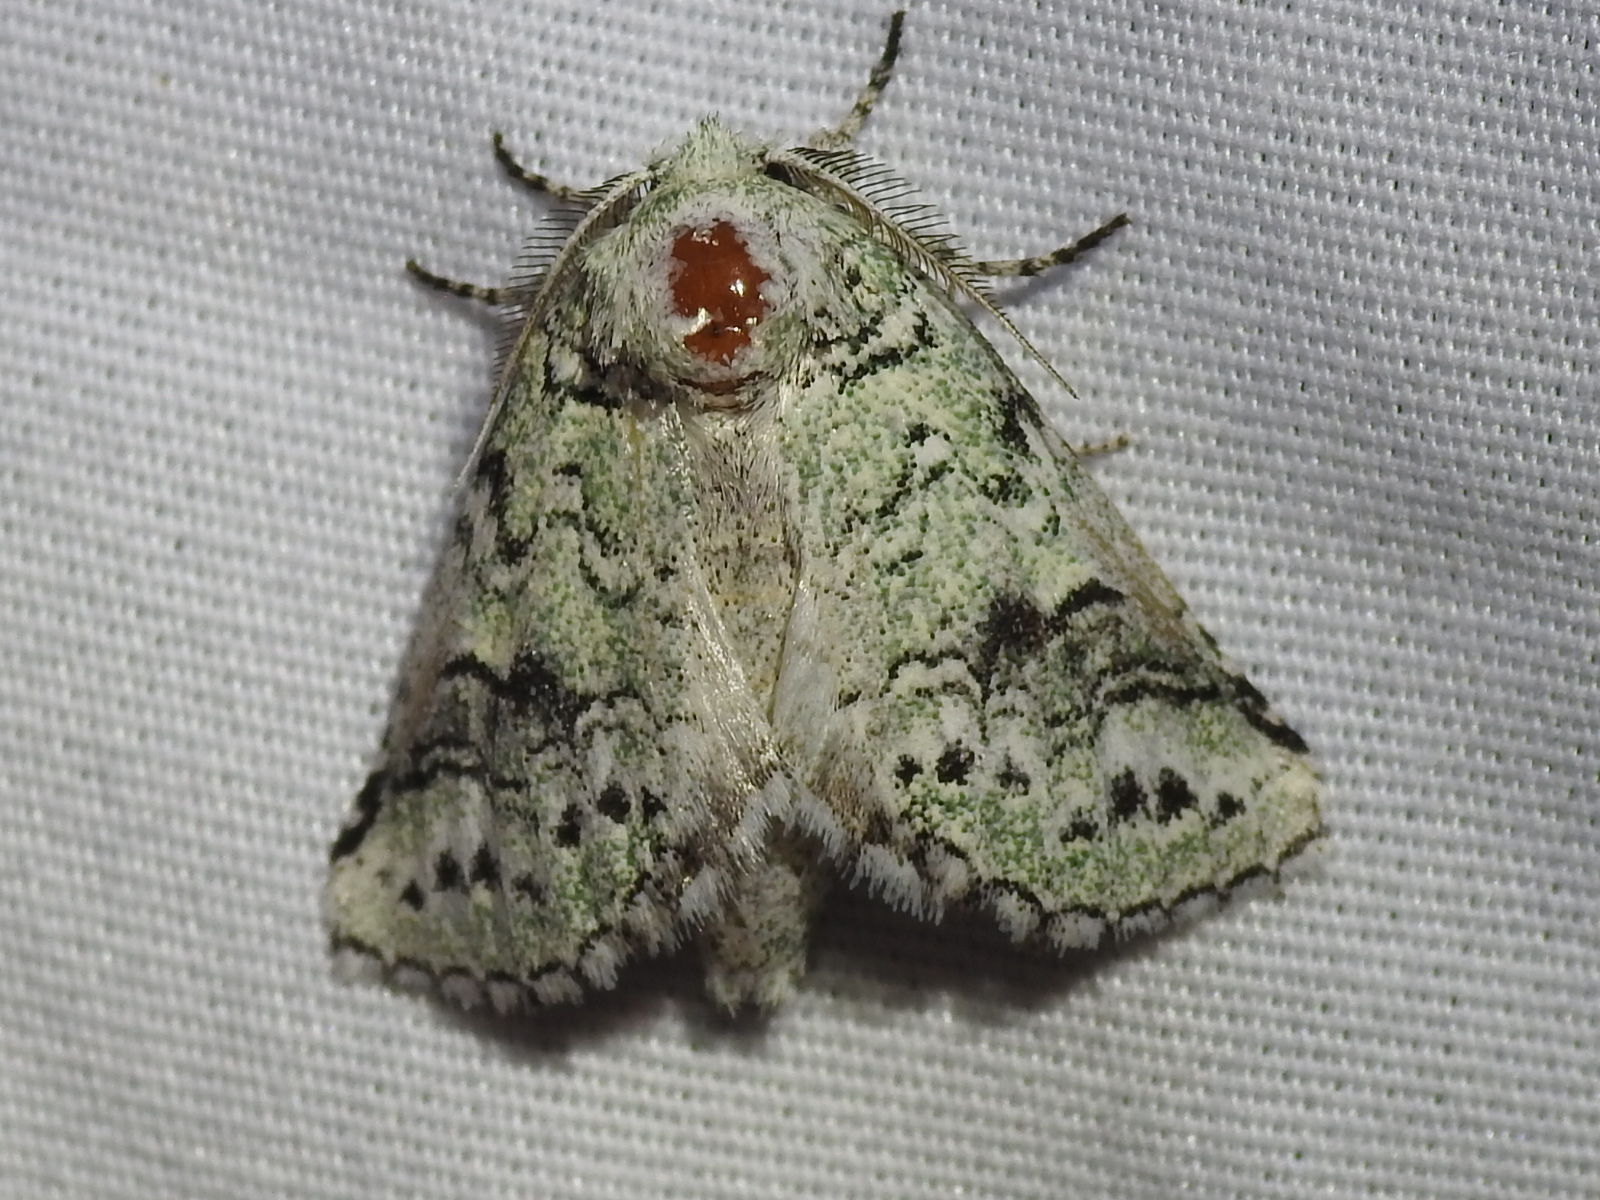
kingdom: Animalia
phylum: Arthropoda
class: Insecta
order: Lepidoptera
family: Notodontidae
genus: Litodonta
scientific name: Litodonta hydromeli
